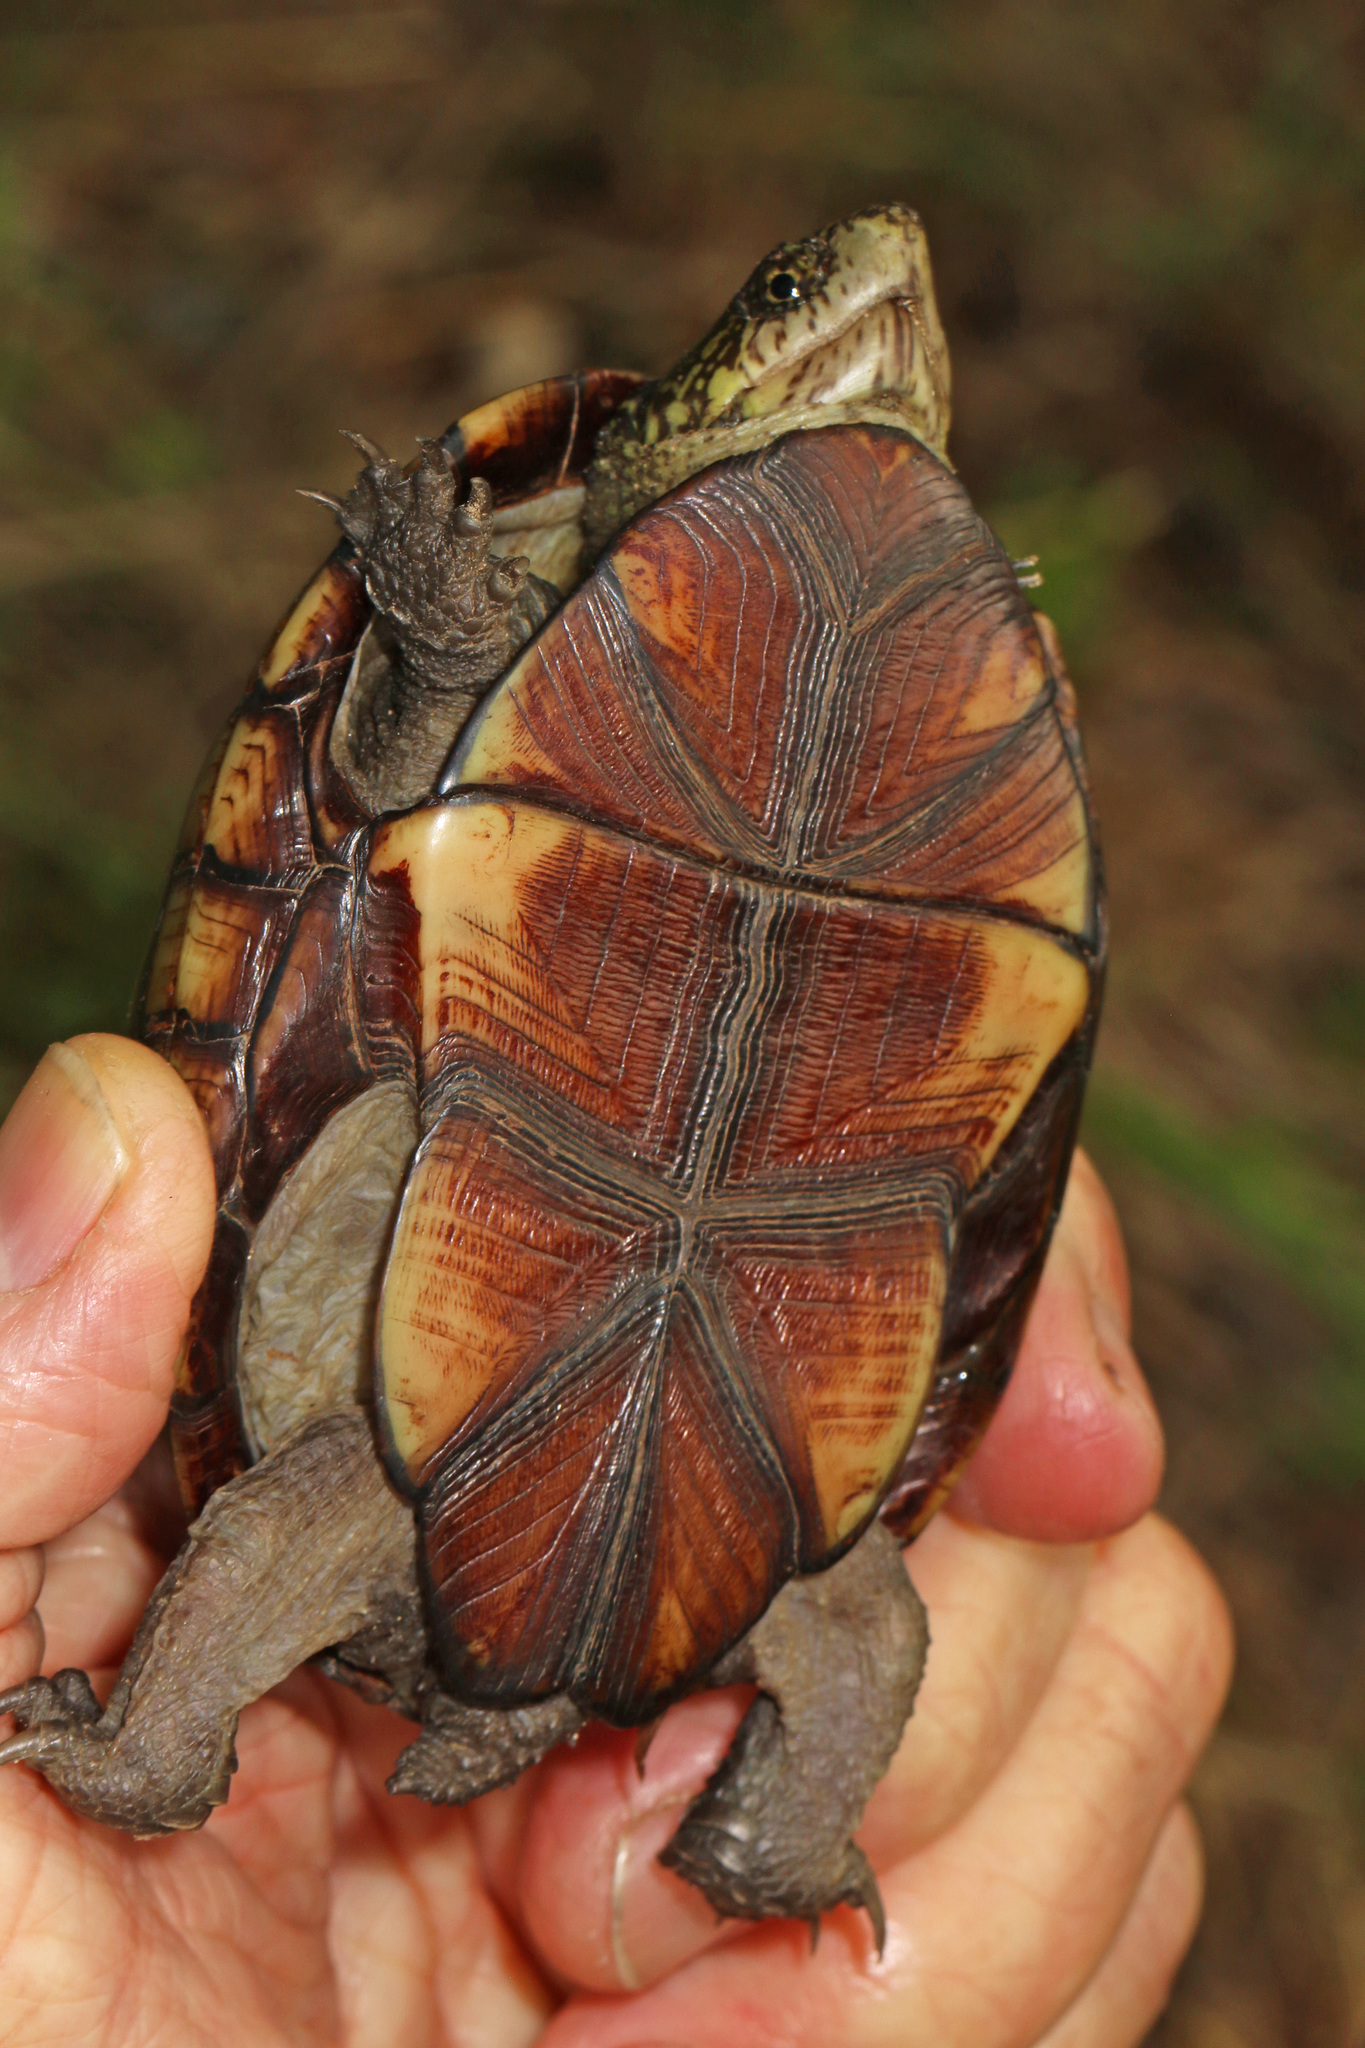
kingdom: Animalia
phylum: Chordata
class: Testudines
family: Kinosternidae
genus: Kinosternon
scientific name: Kinosternon subrubrum
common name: Eastern mud turtle
